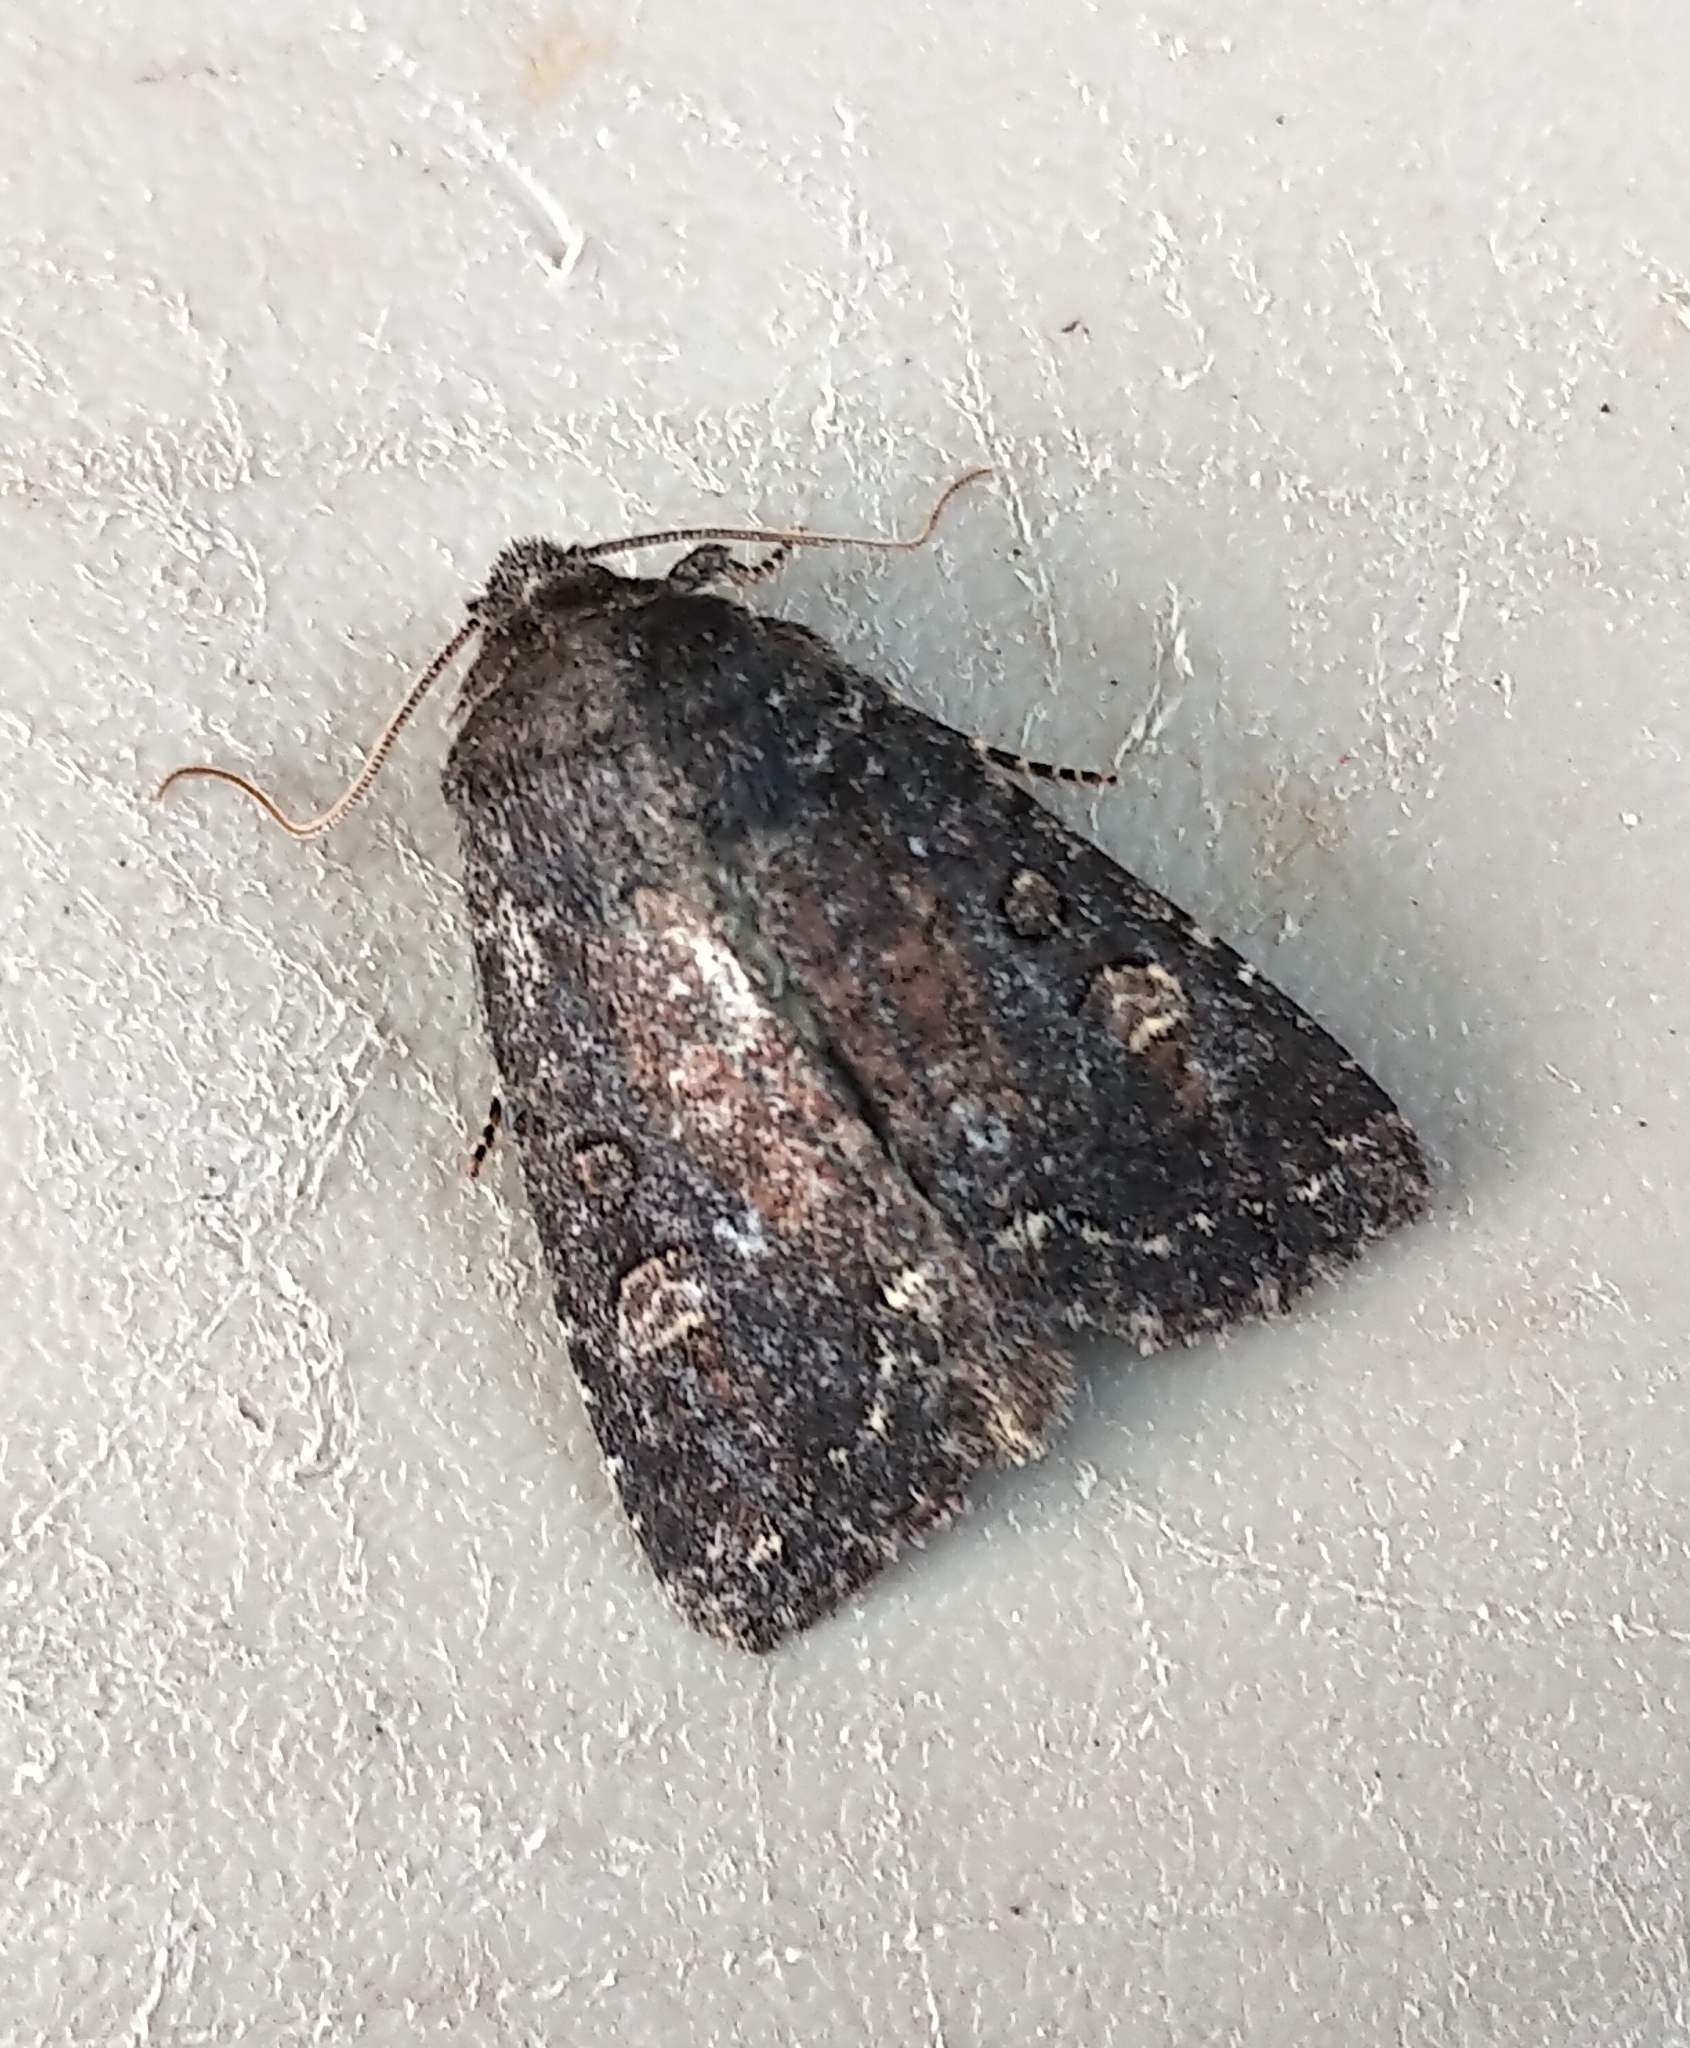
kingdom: Animalia
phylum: Arthropoda
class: Insecta
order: Lepidoptera
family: Noctuidae
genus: Orthodes
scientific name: Orthodes obscura
